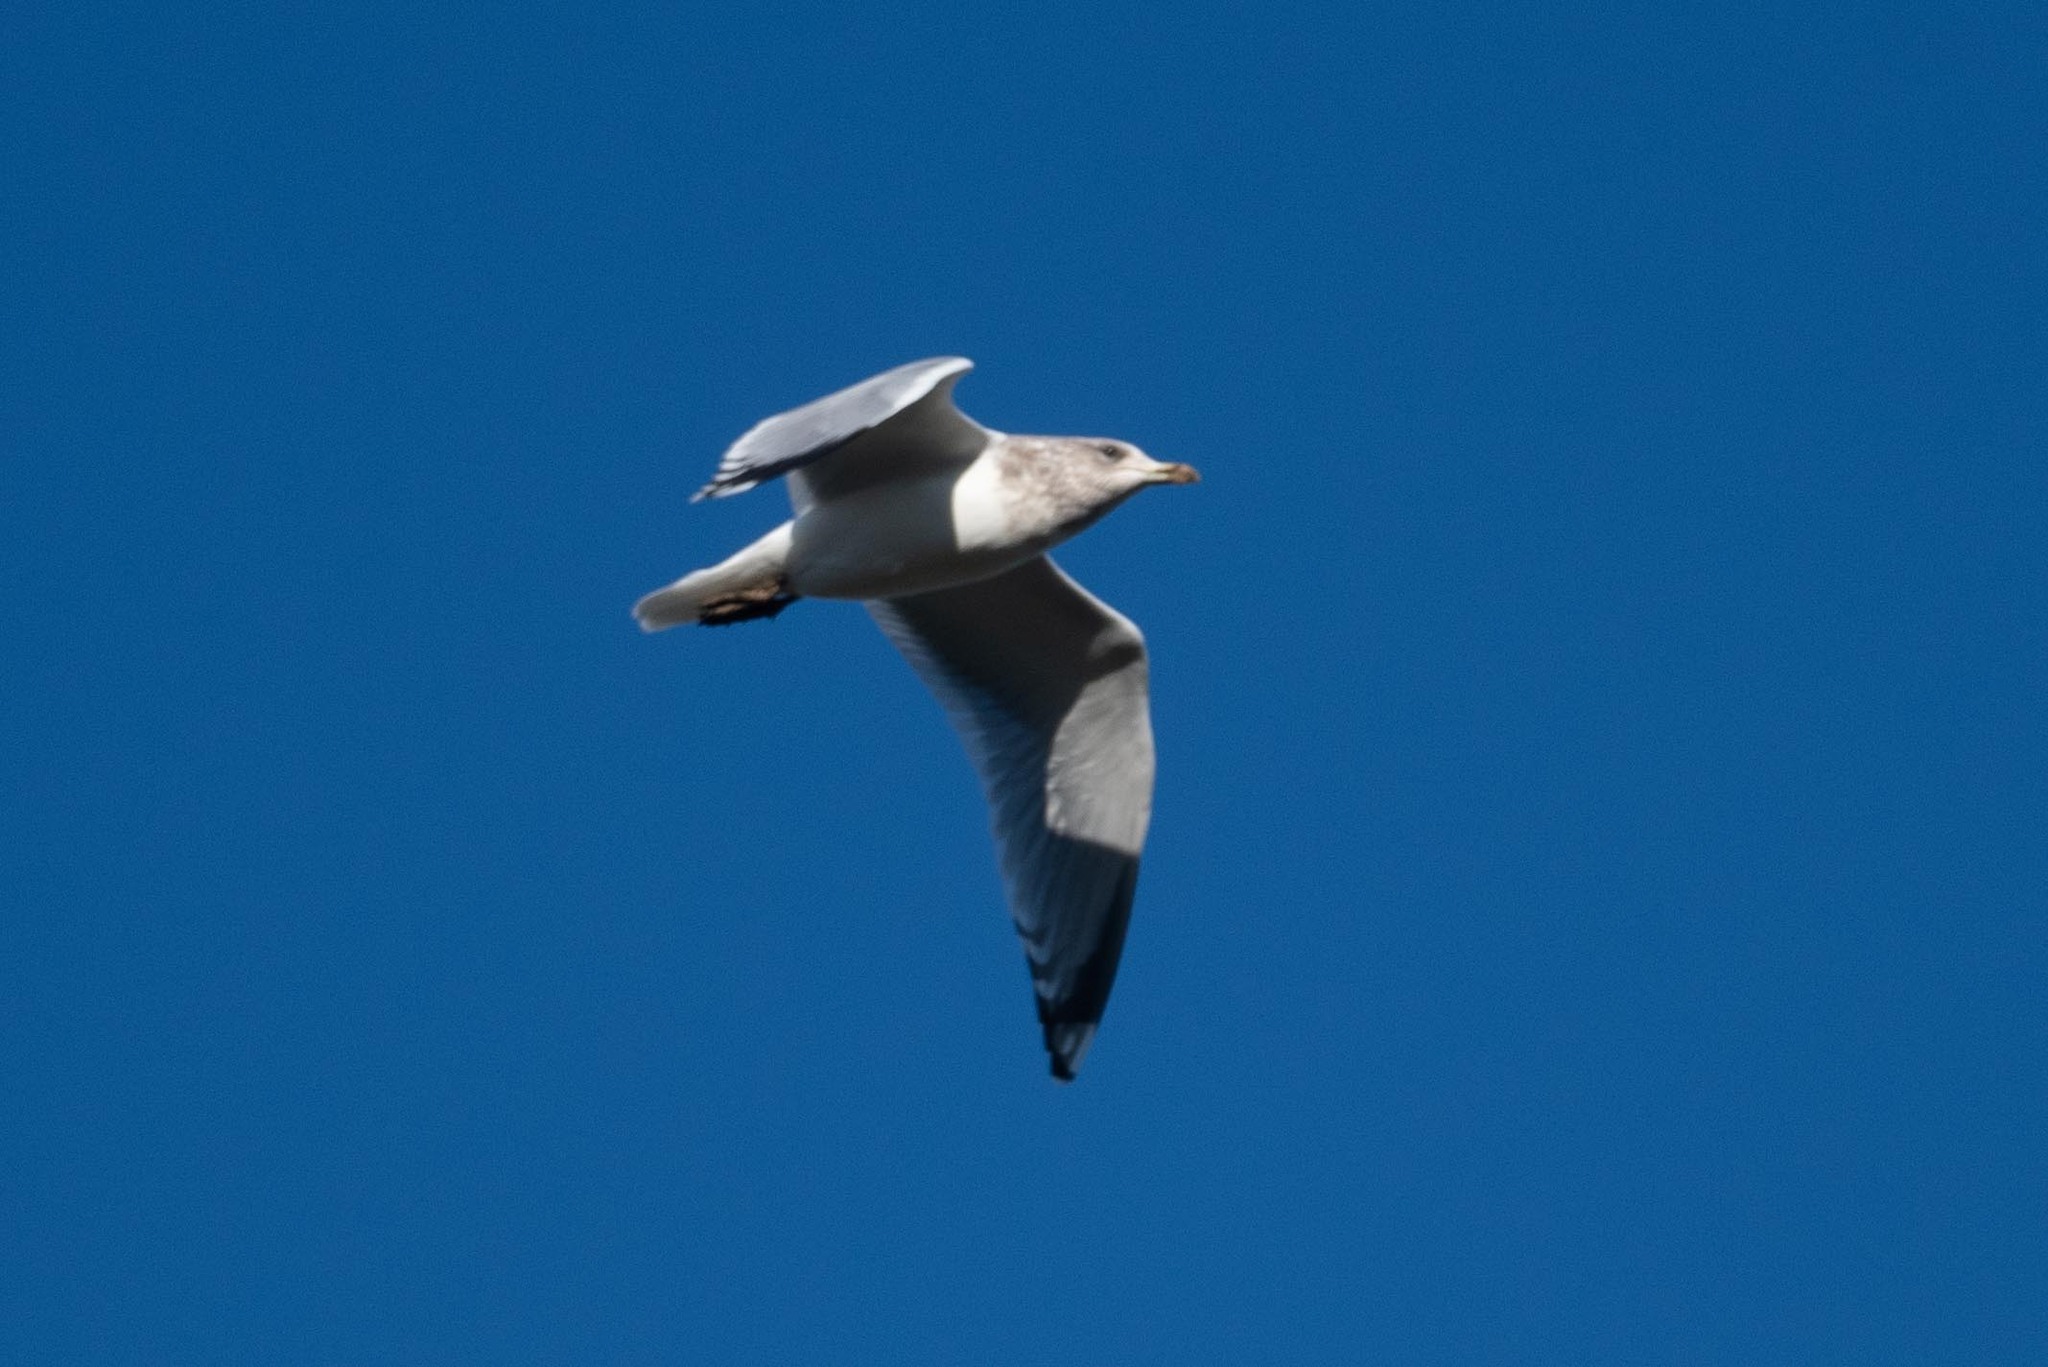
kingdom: Animalia
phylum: Chordata
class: Aves
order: Charadriiformes
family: Laridae
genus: Larus
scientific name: Larus argentatus
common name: Herring gull
